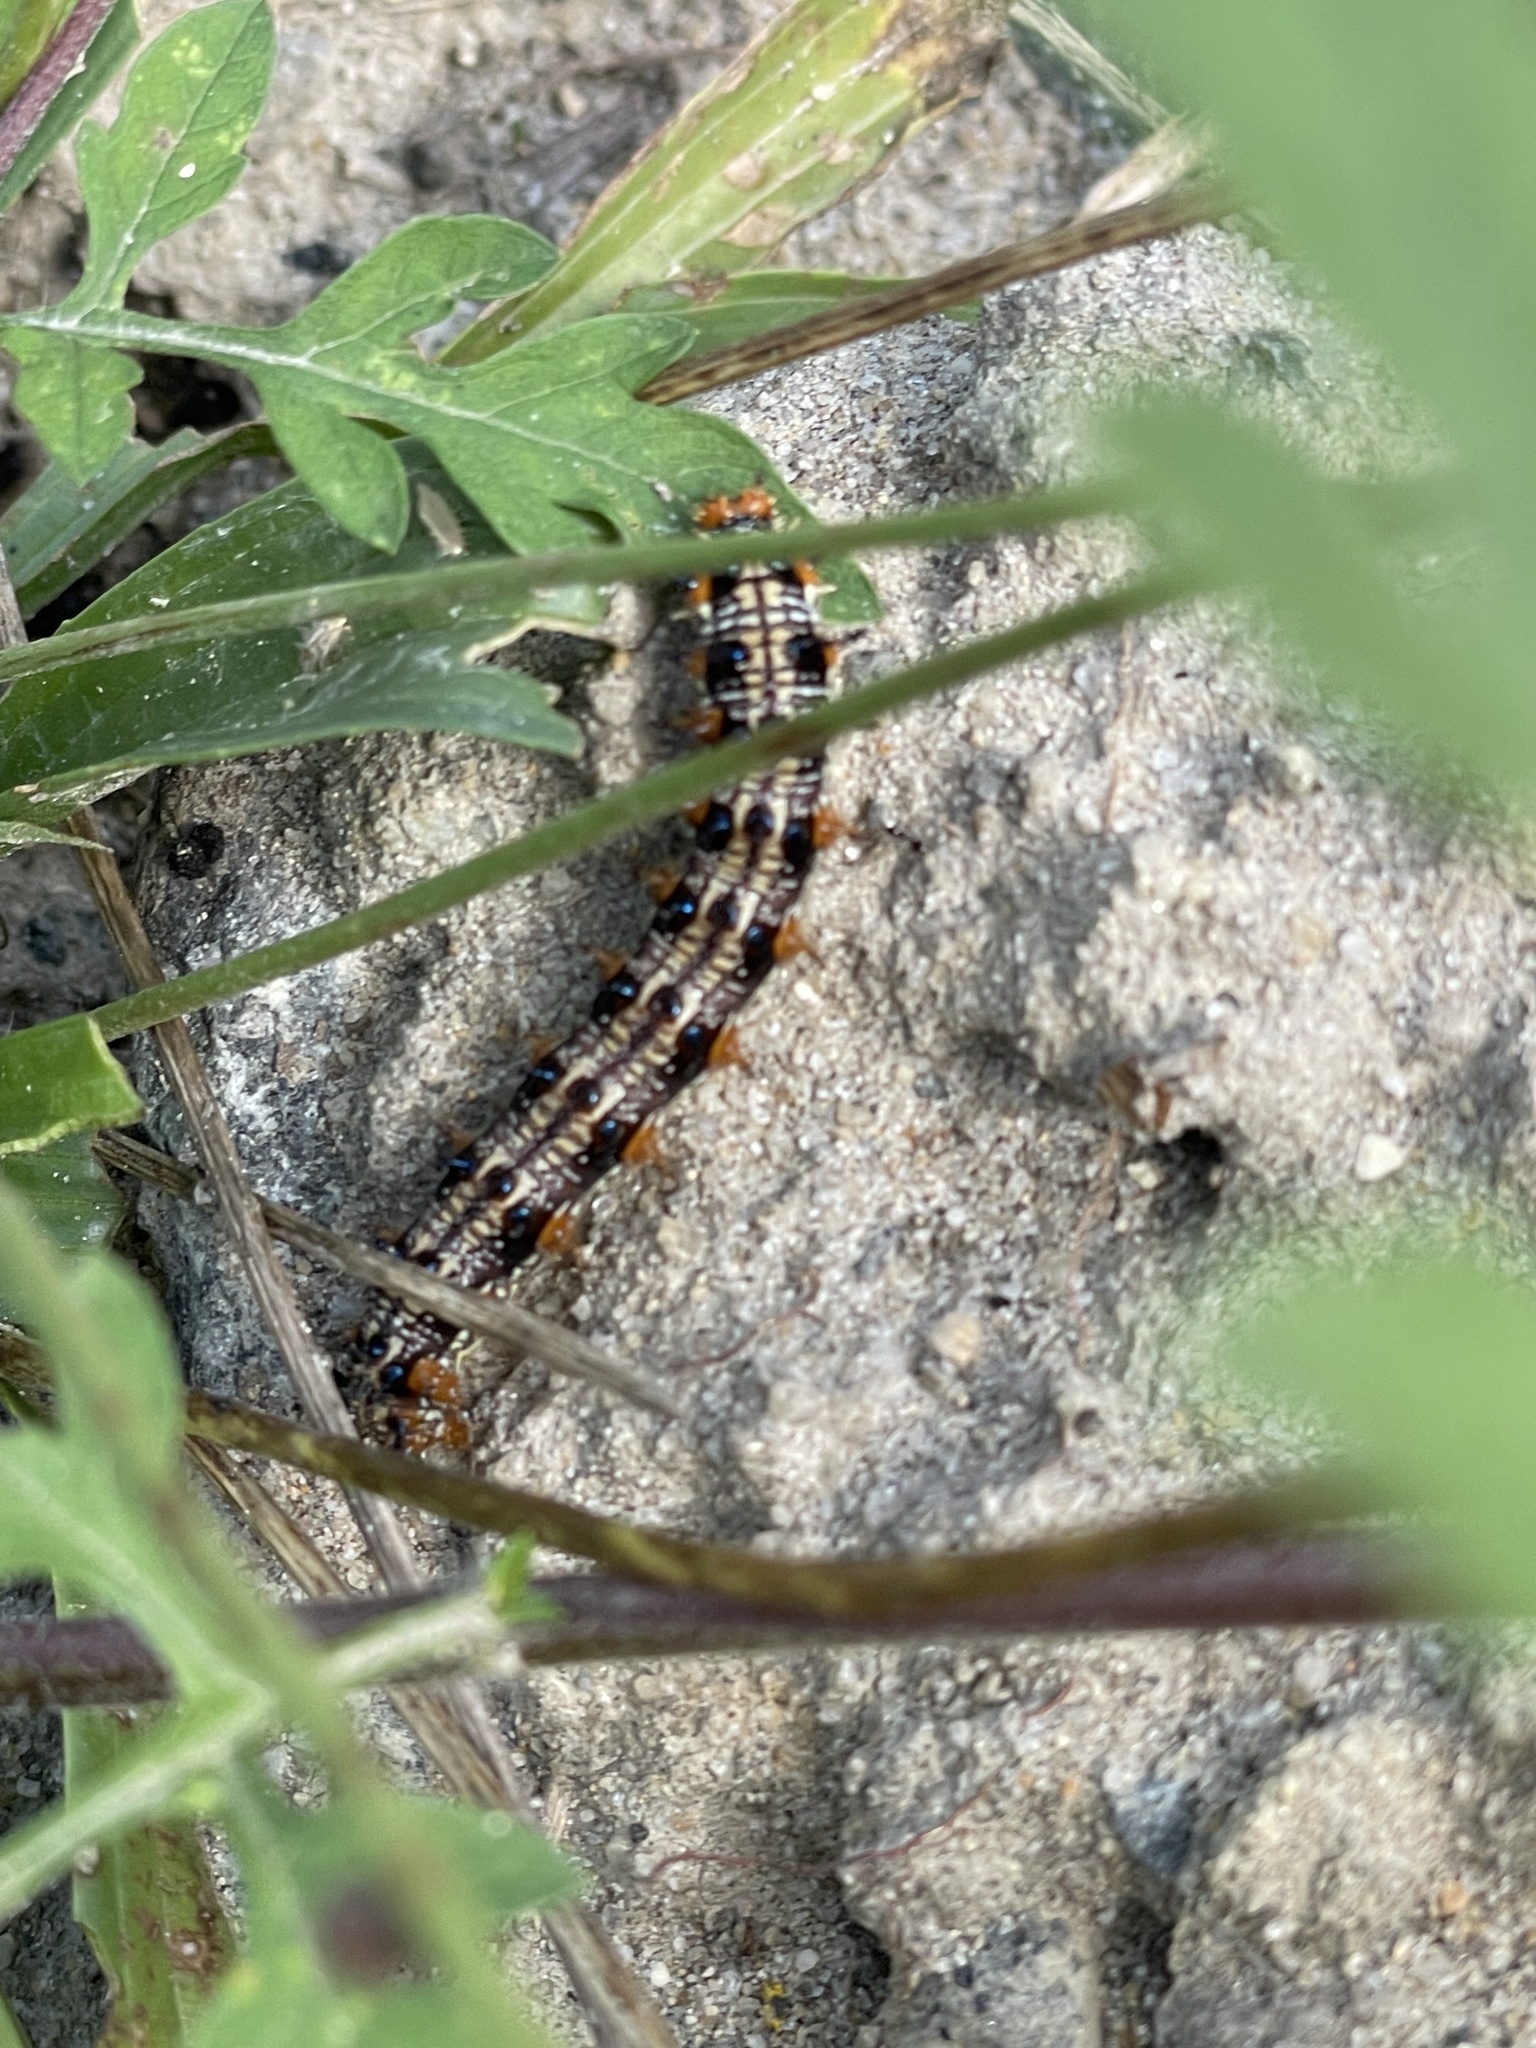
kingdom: Animalia
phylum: Arthropoda
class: Insecta
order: Lepidoptera
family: Nymphalidae
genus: Junonia
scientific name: Junonia coenia
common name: Common buckeye
